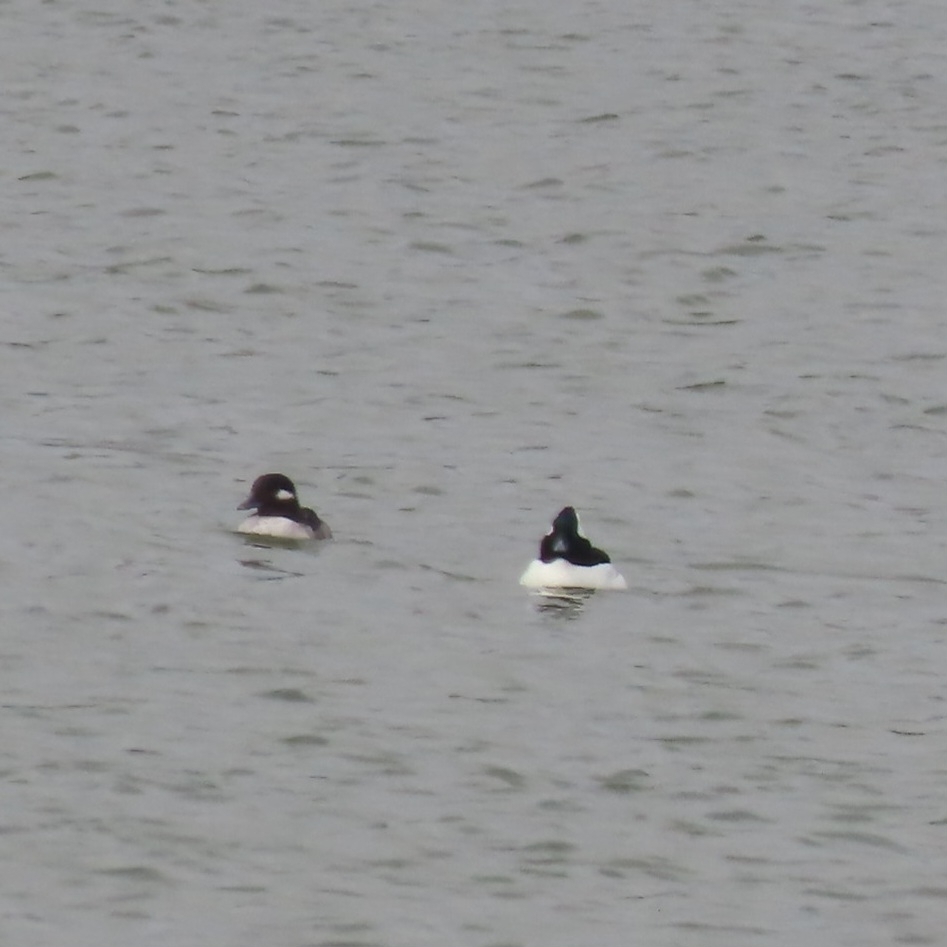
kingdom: Animalia
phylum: Chordata
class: Aves
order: Anseriformes
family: Anatidae
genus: Bucephala
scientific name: Bucephala albeola
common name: Bufflehead
